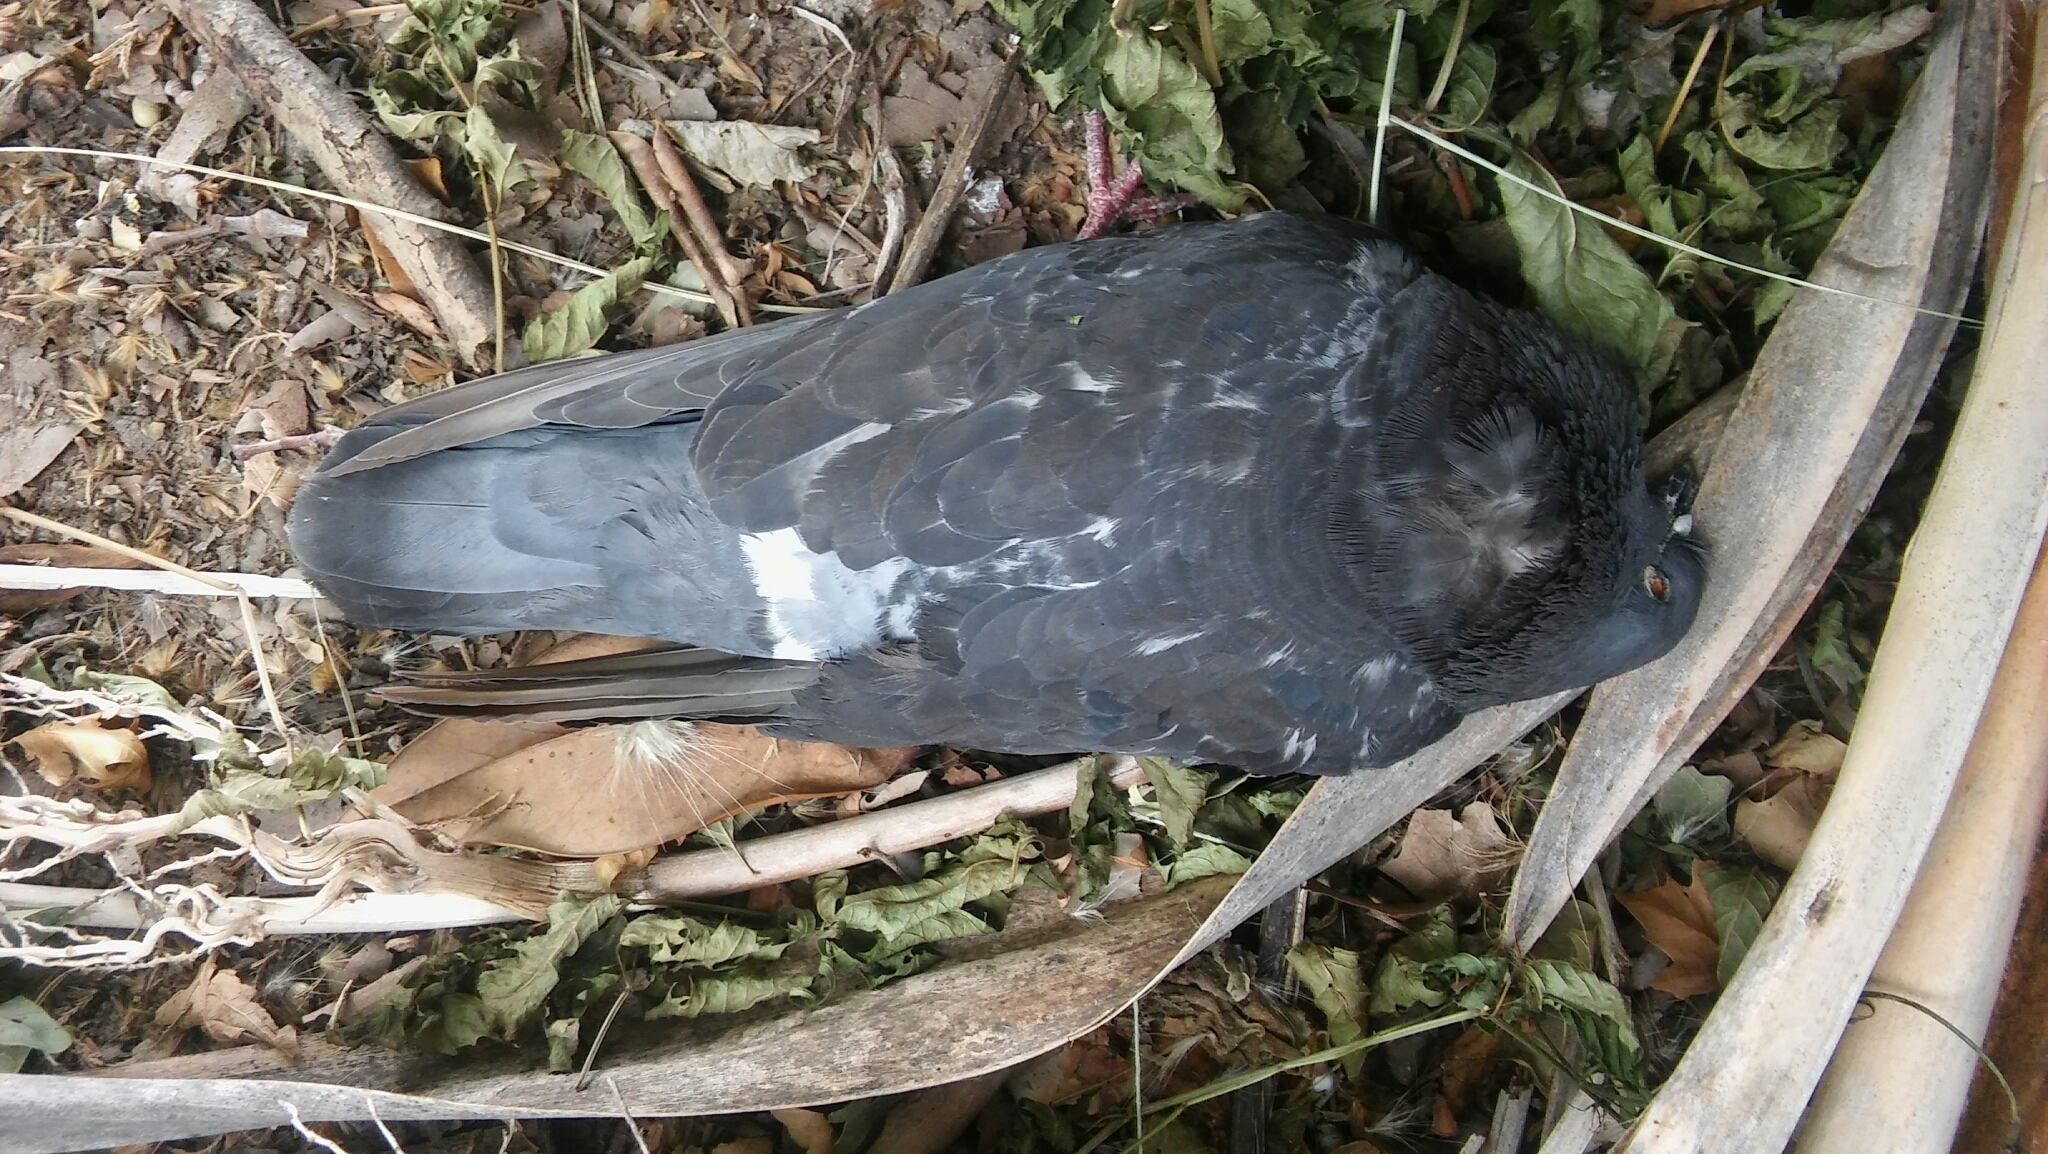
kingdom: Animalia
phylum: Chordata
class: Aves
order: Columbiformes
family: Columbidae
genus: Columba
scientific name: Columba livia
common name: Rock pigeon
